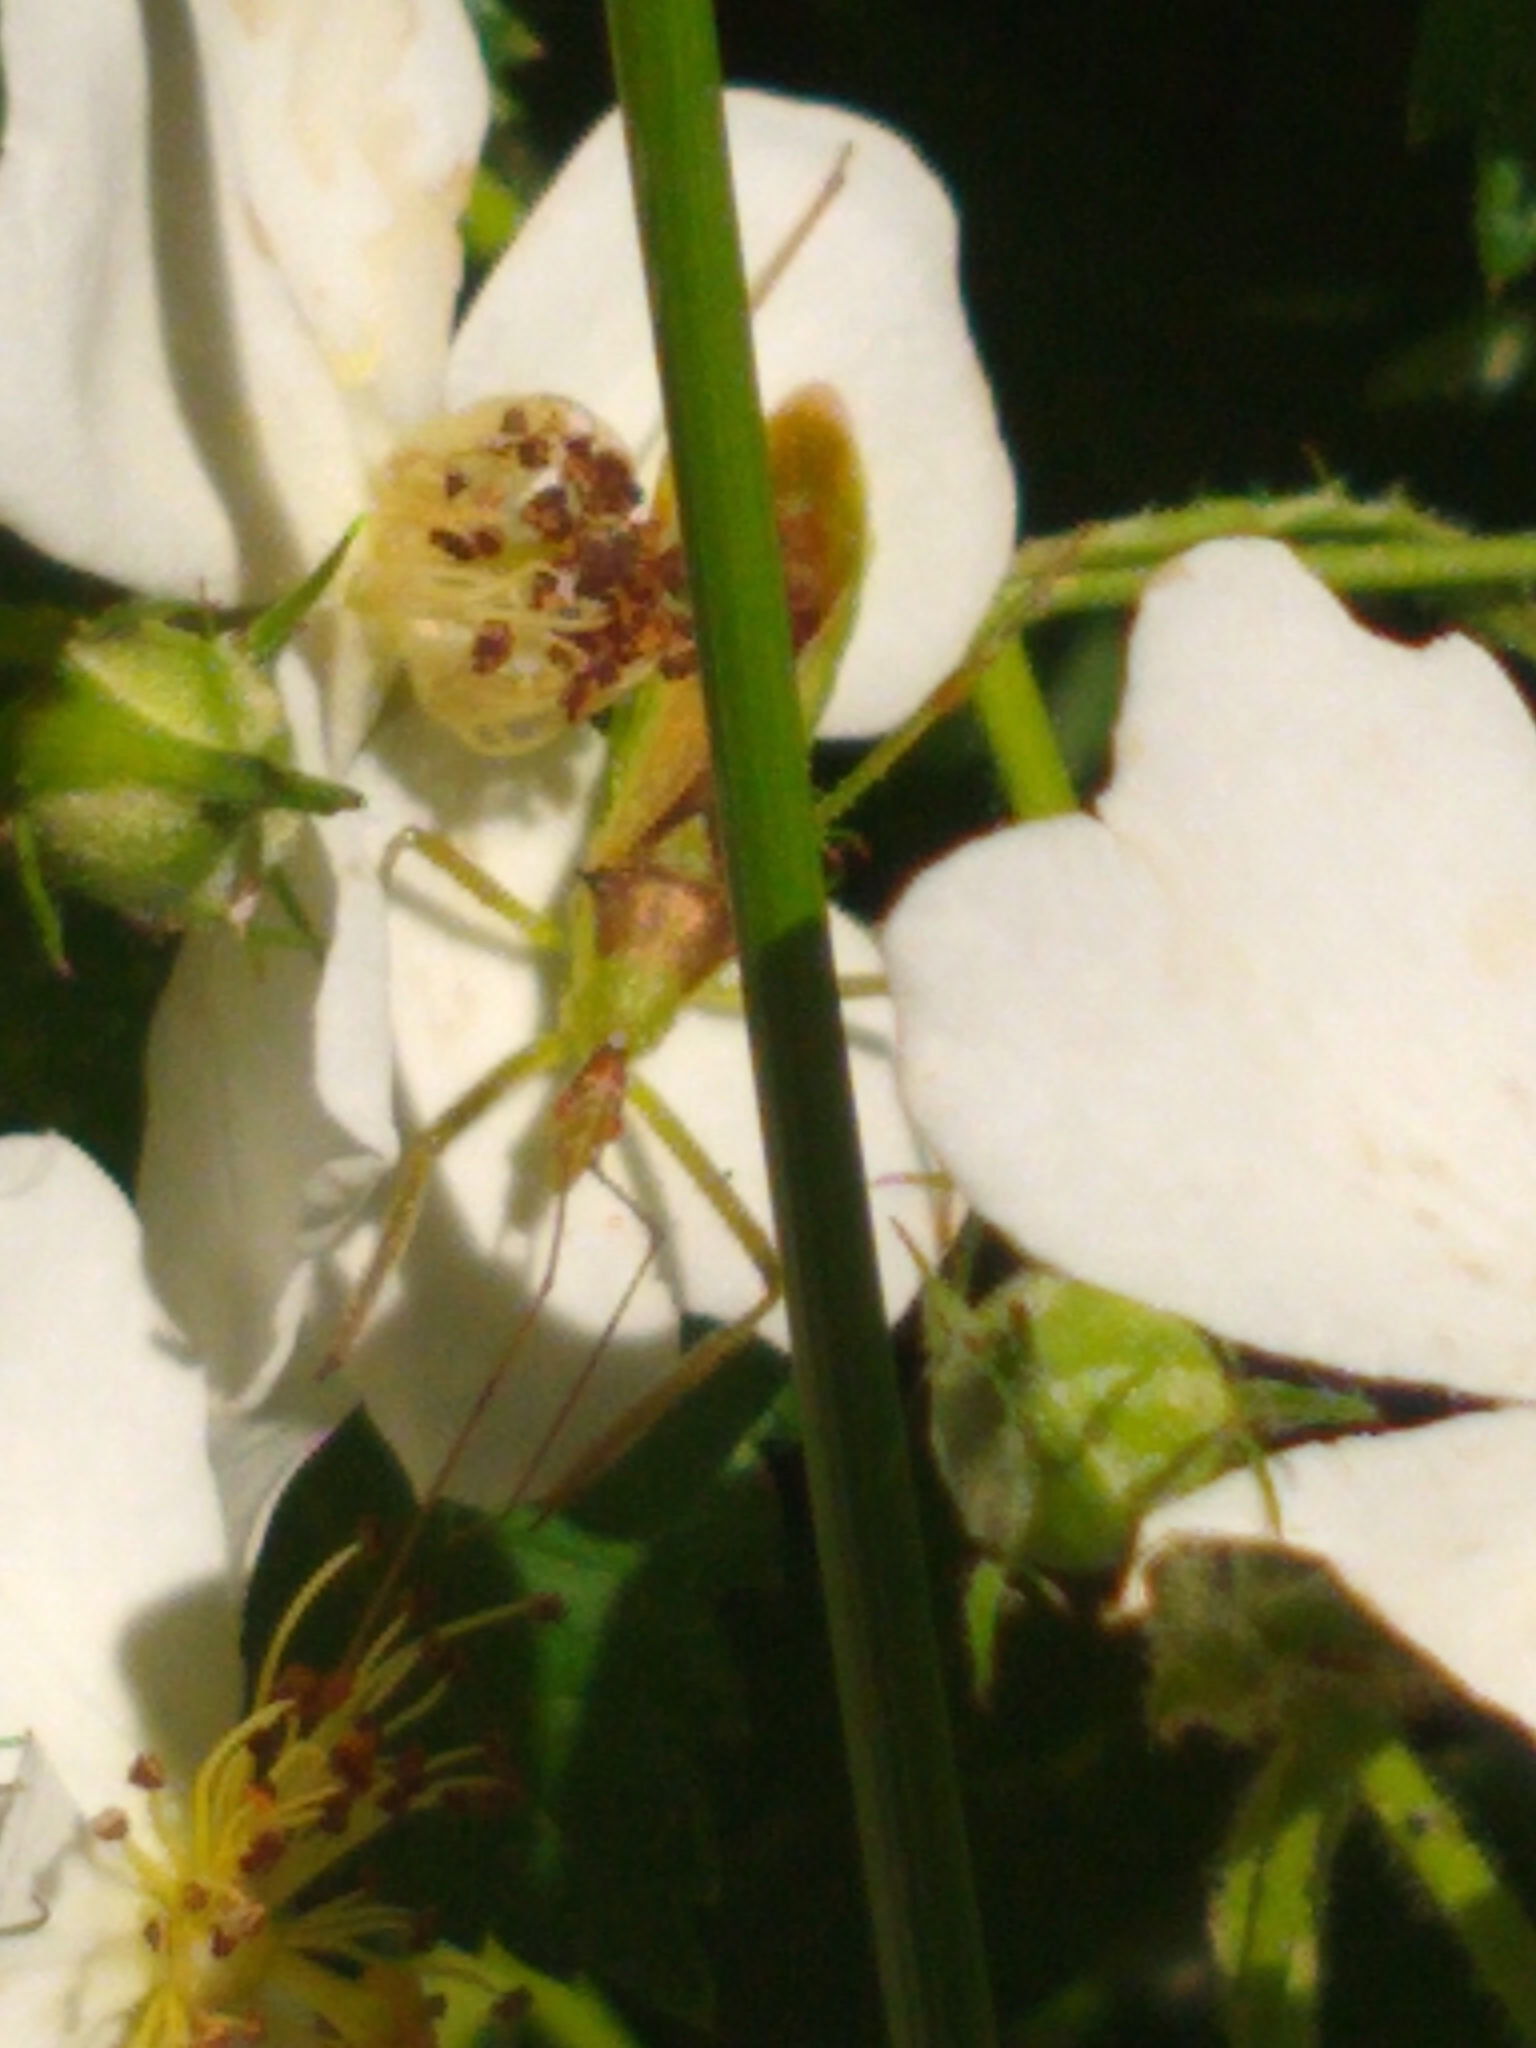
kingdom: Animalia
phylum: Arthropoda
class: Insecta
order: Hemiptera
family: Reduviidae
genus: Zelus
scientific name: Zelus luridus
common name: Pale green assassin bug
